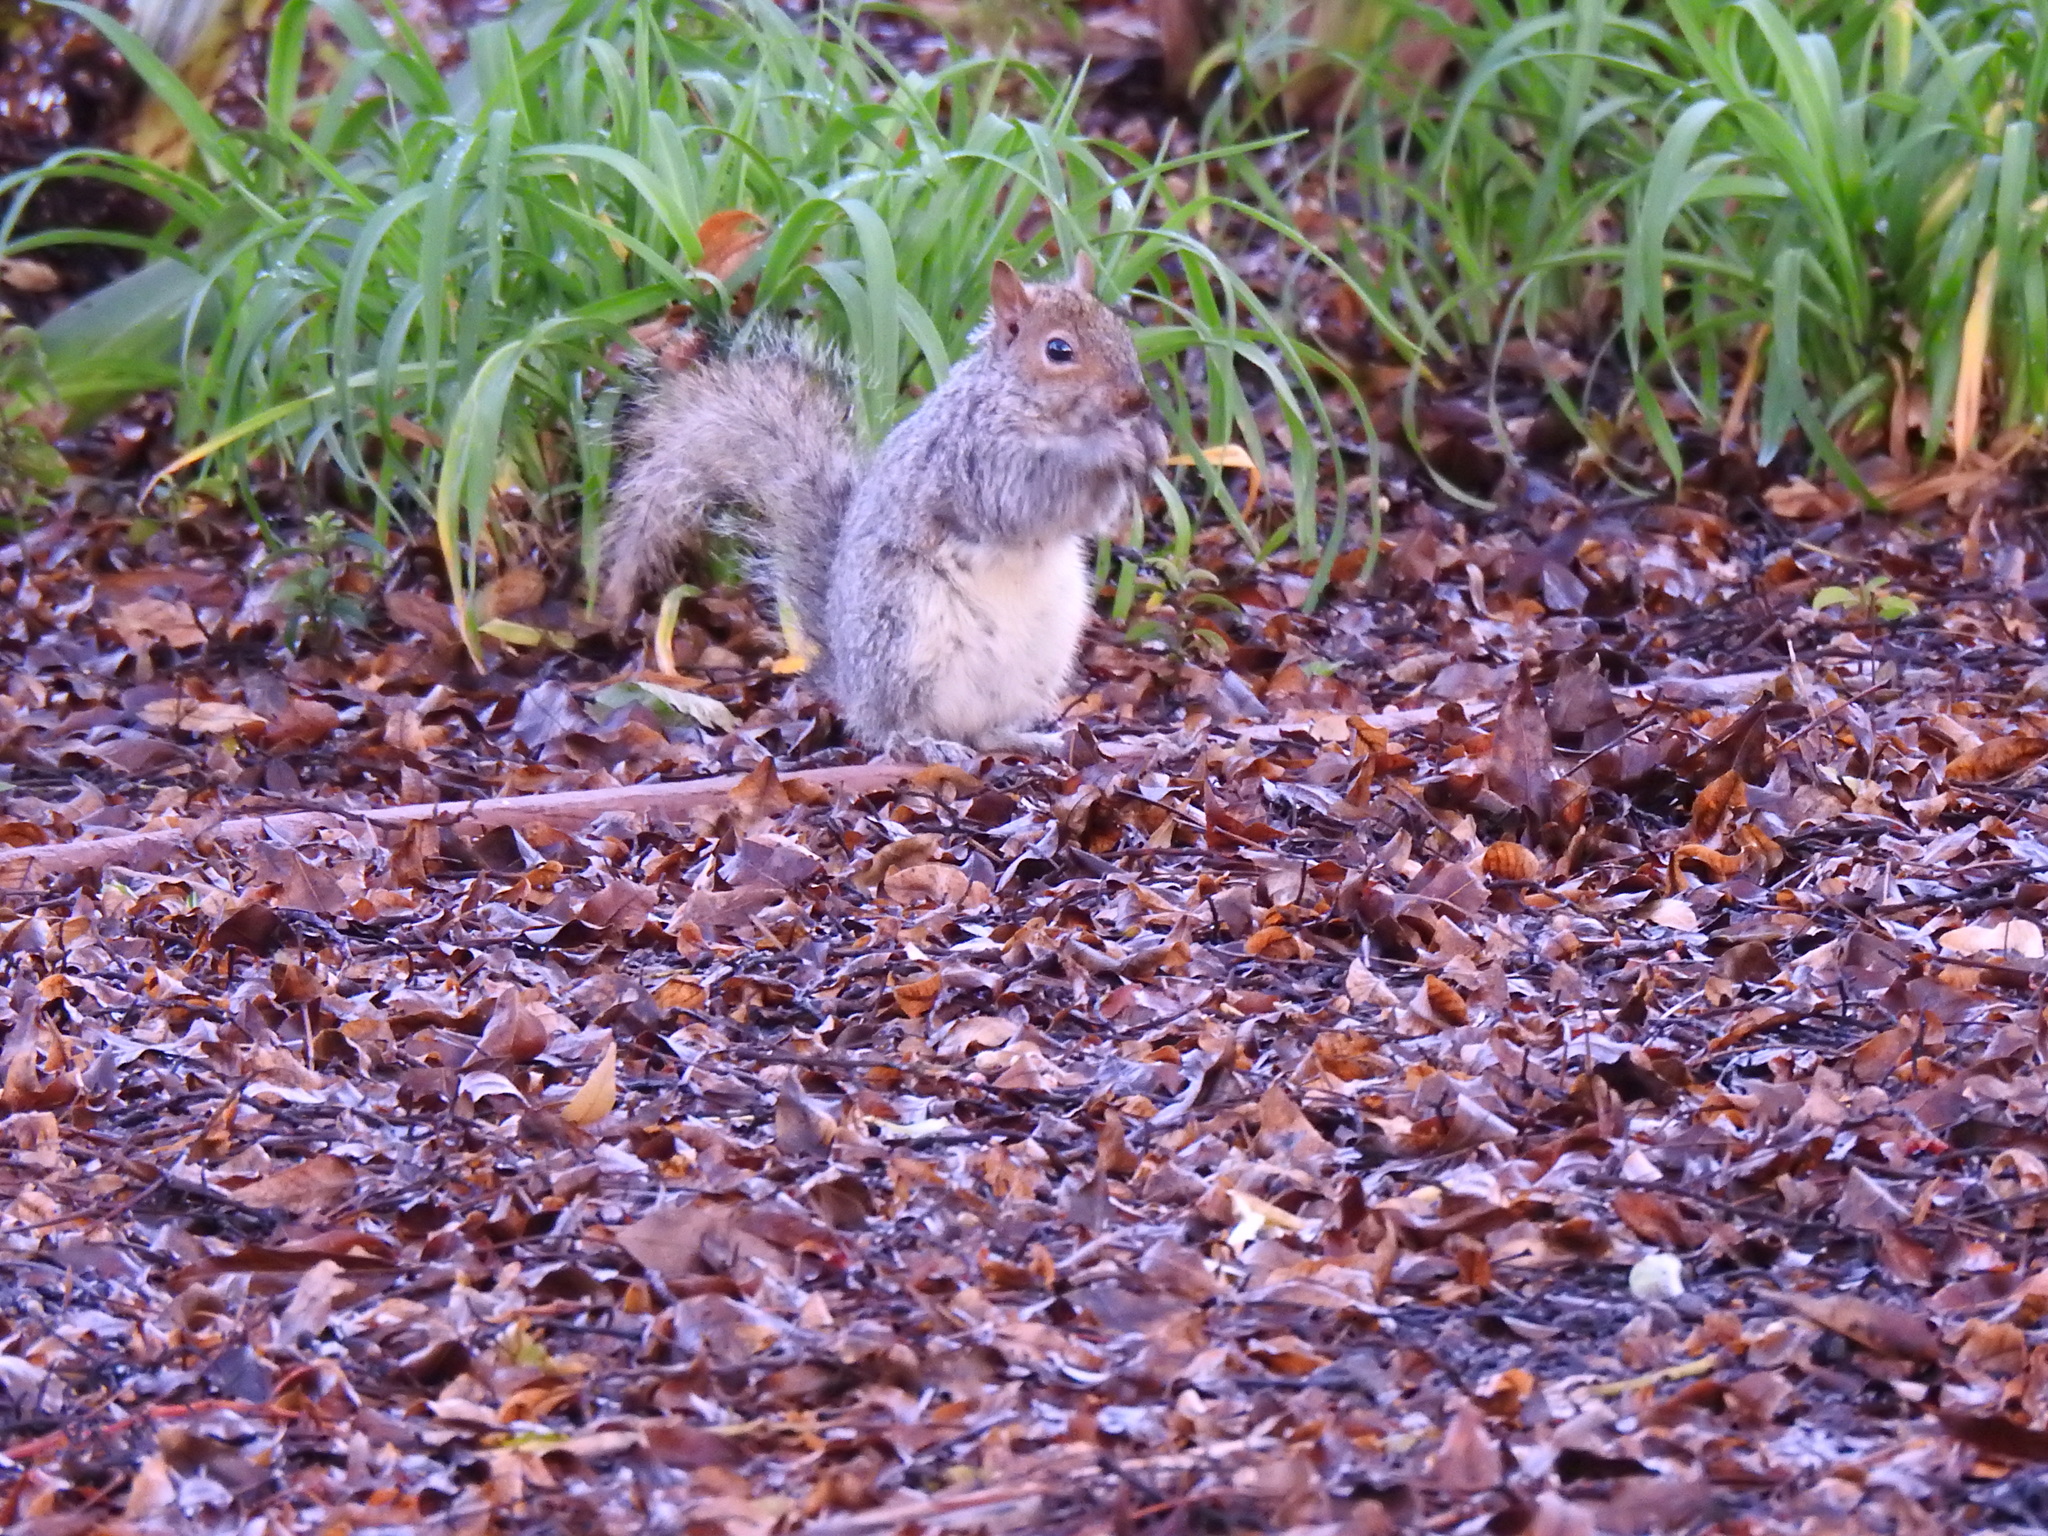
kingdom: Animalia
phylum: Chordata
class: Mammalia
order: Rodentia
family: Sciuridae
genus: Sciurus
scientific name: Sciurus carolinensis
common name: Eastern gray squirrel
